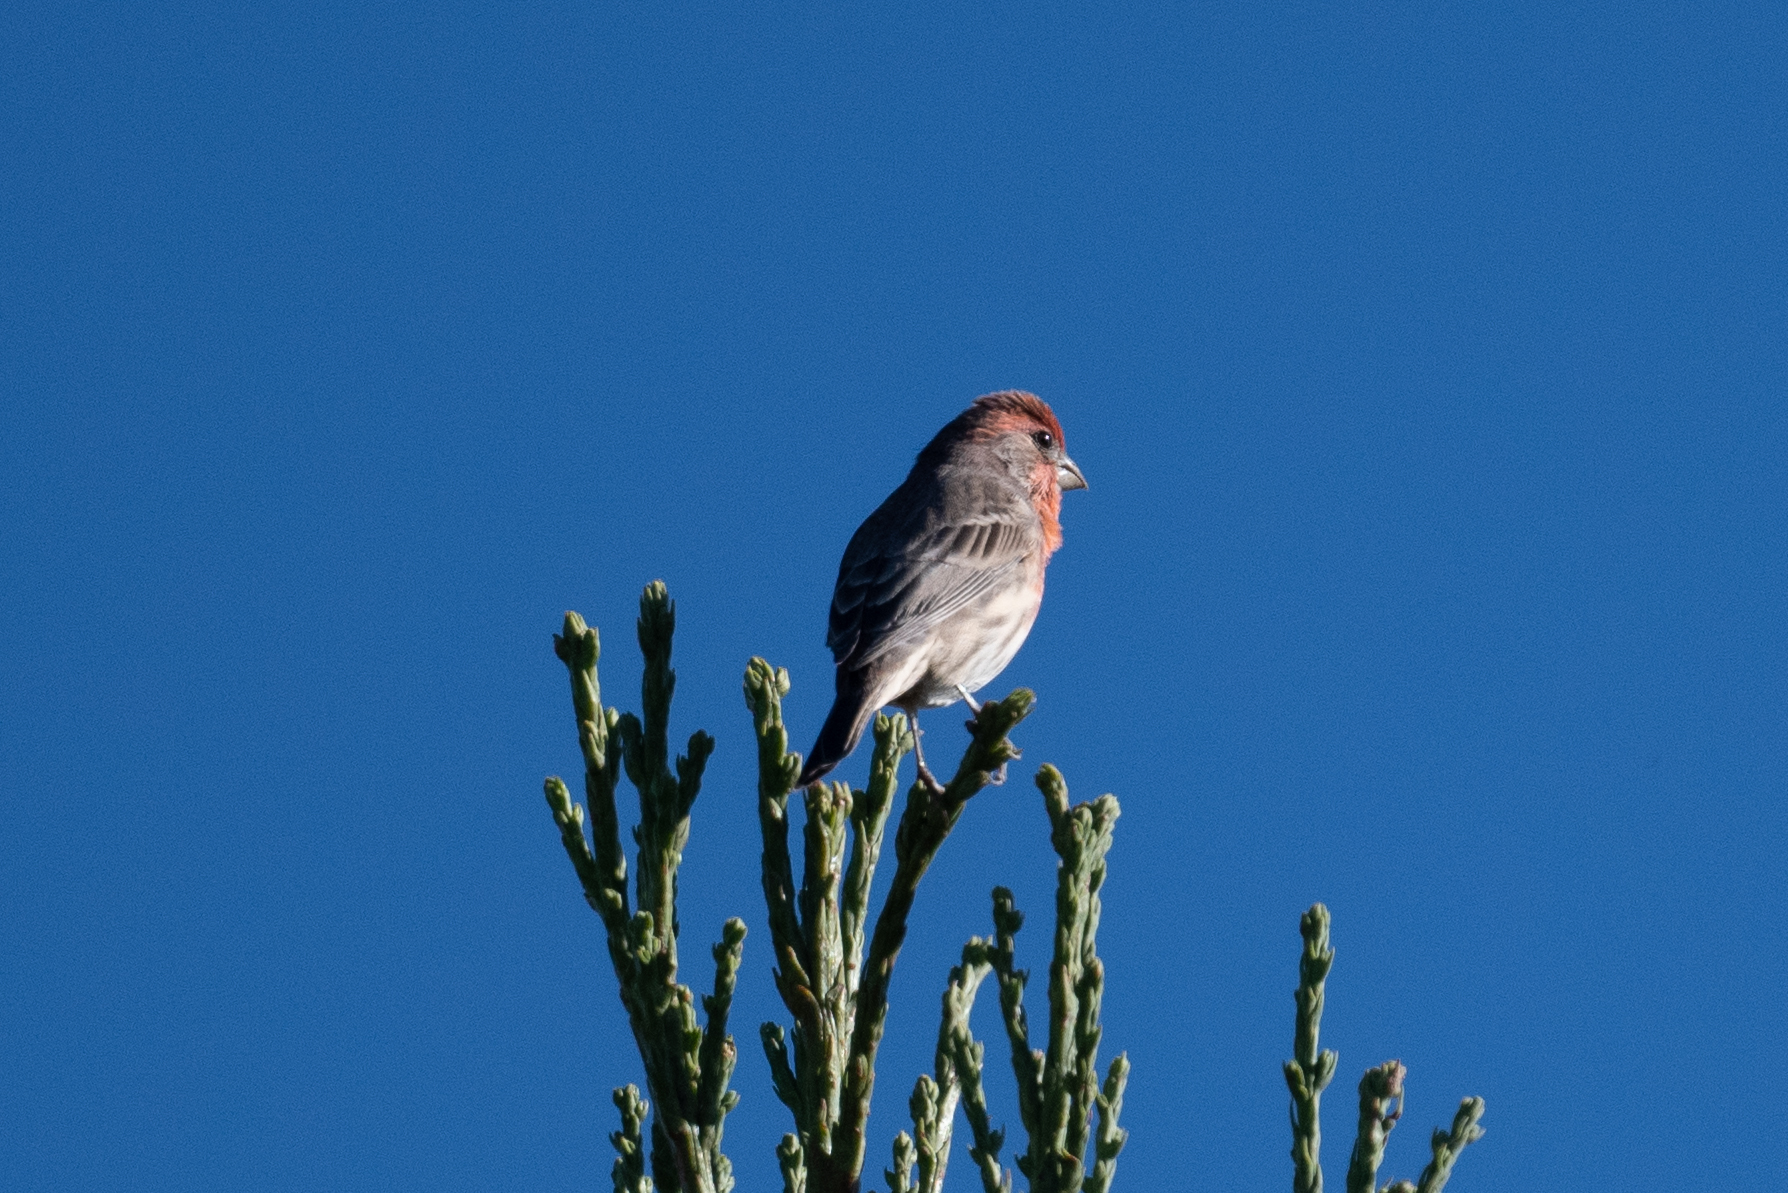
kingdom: Animalia
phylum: Chordata
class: Aves
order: Passeriformes
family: Fringillidae
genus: Haemorhous
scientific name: Haemorhous mexicanus
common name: House finch
